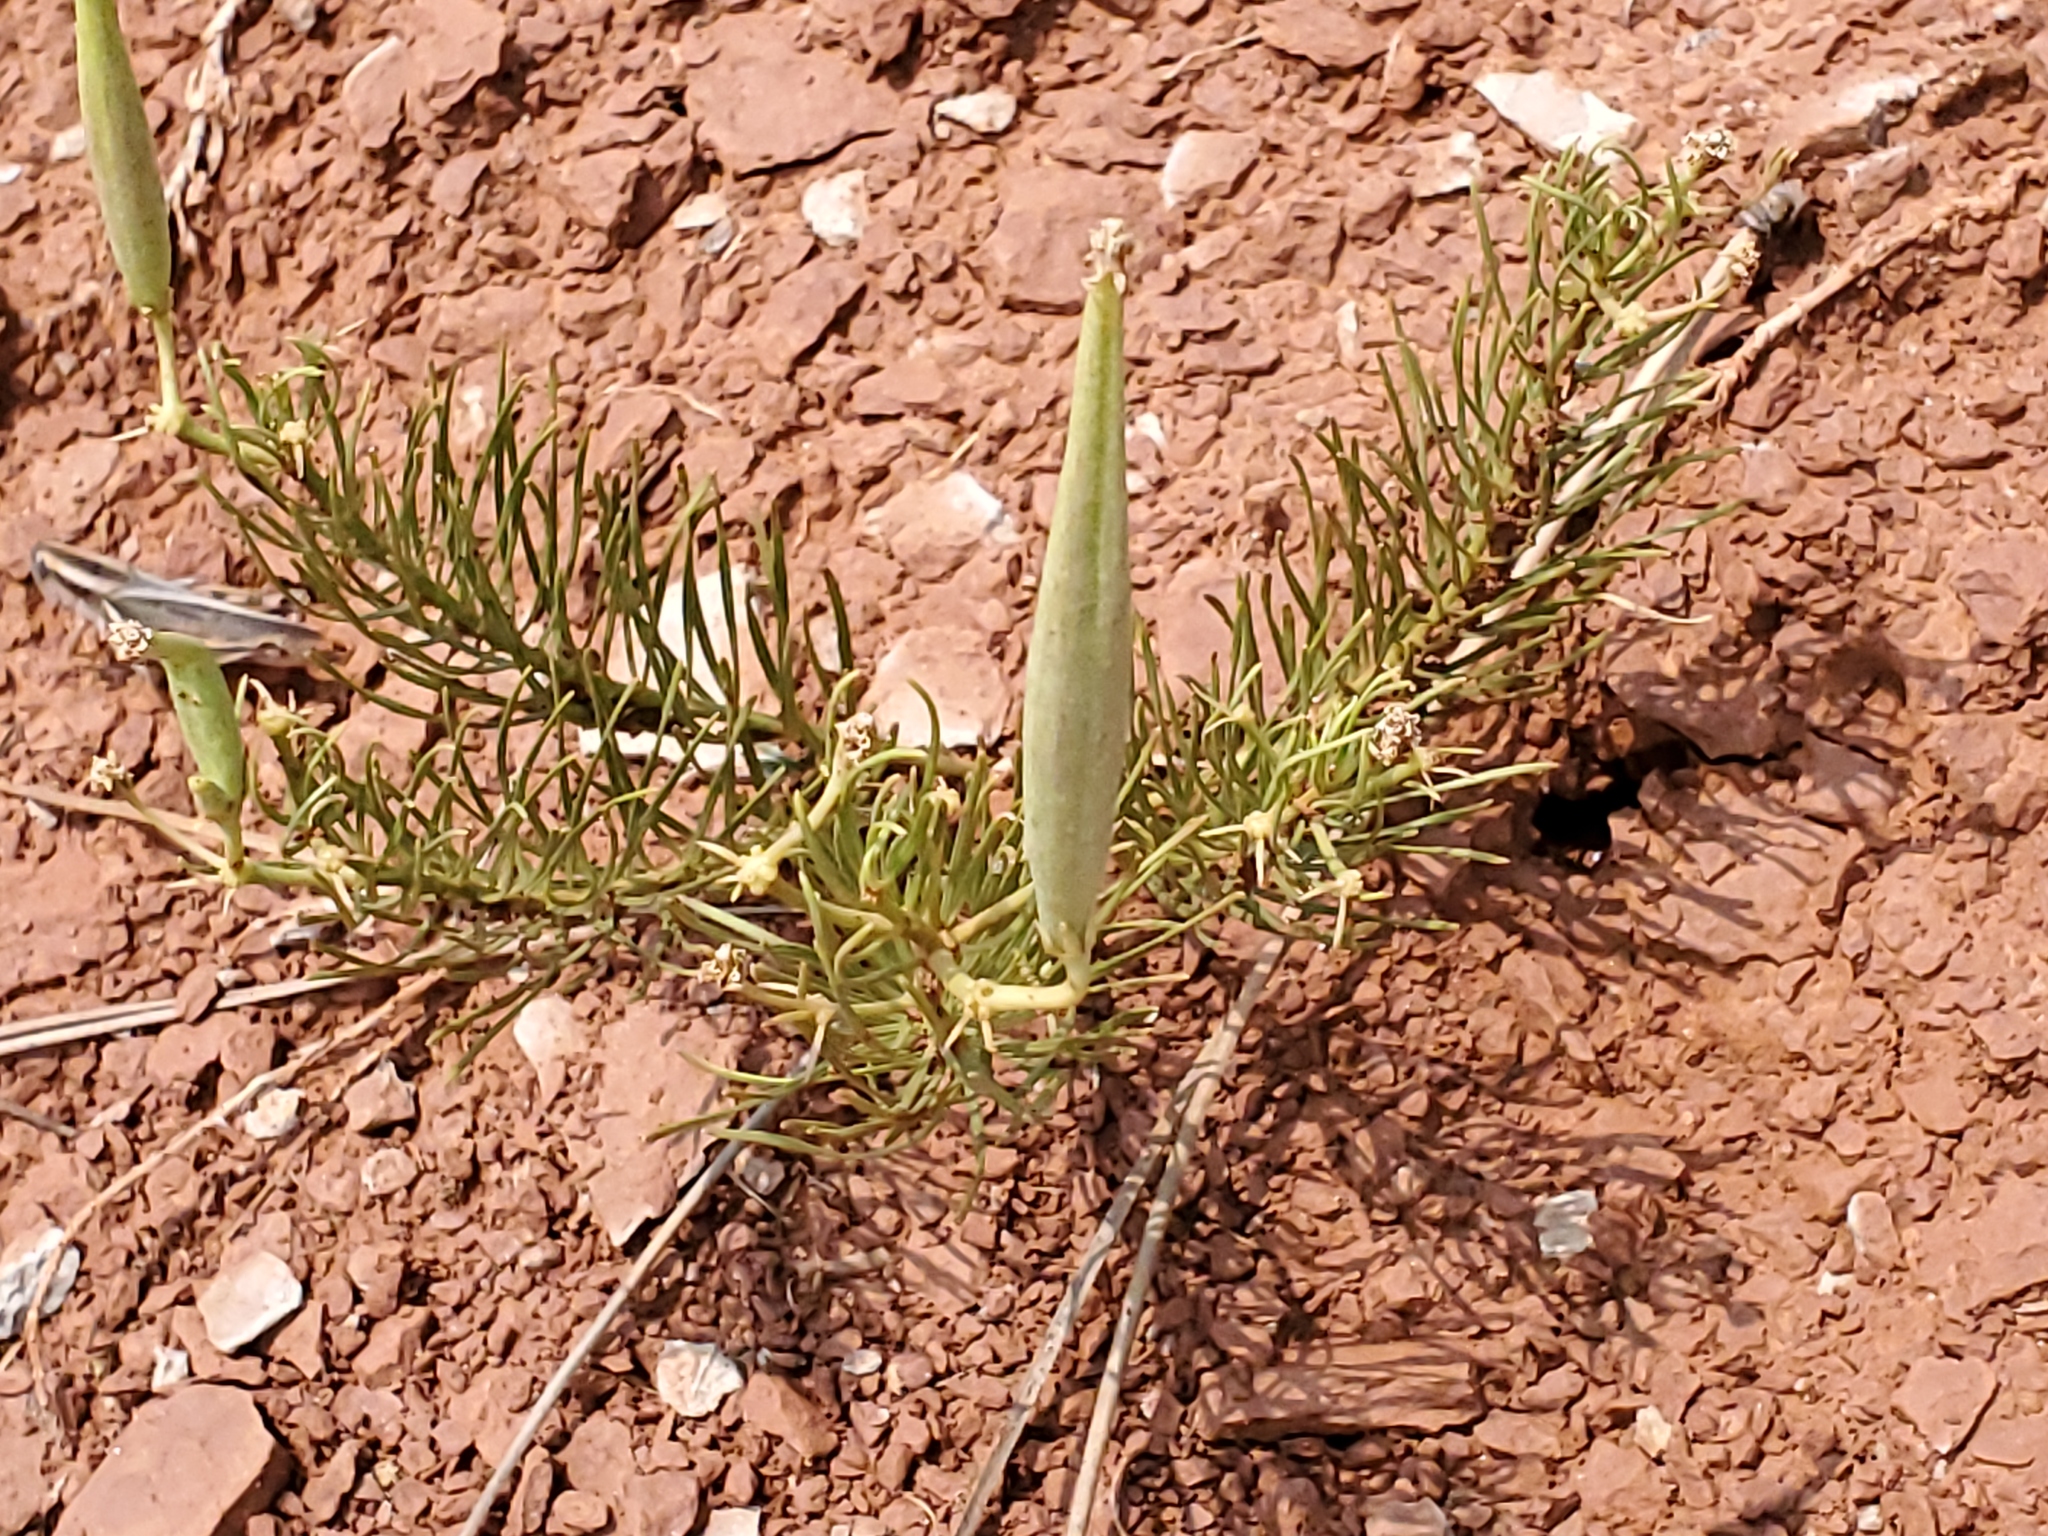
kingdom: Plantae
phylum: Tracheophyta
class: Magnoliopsida
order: Gentianales
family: Apocynaceae
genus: Asclepias
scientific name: Asclepias pumila
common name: Dwarf milkweed
